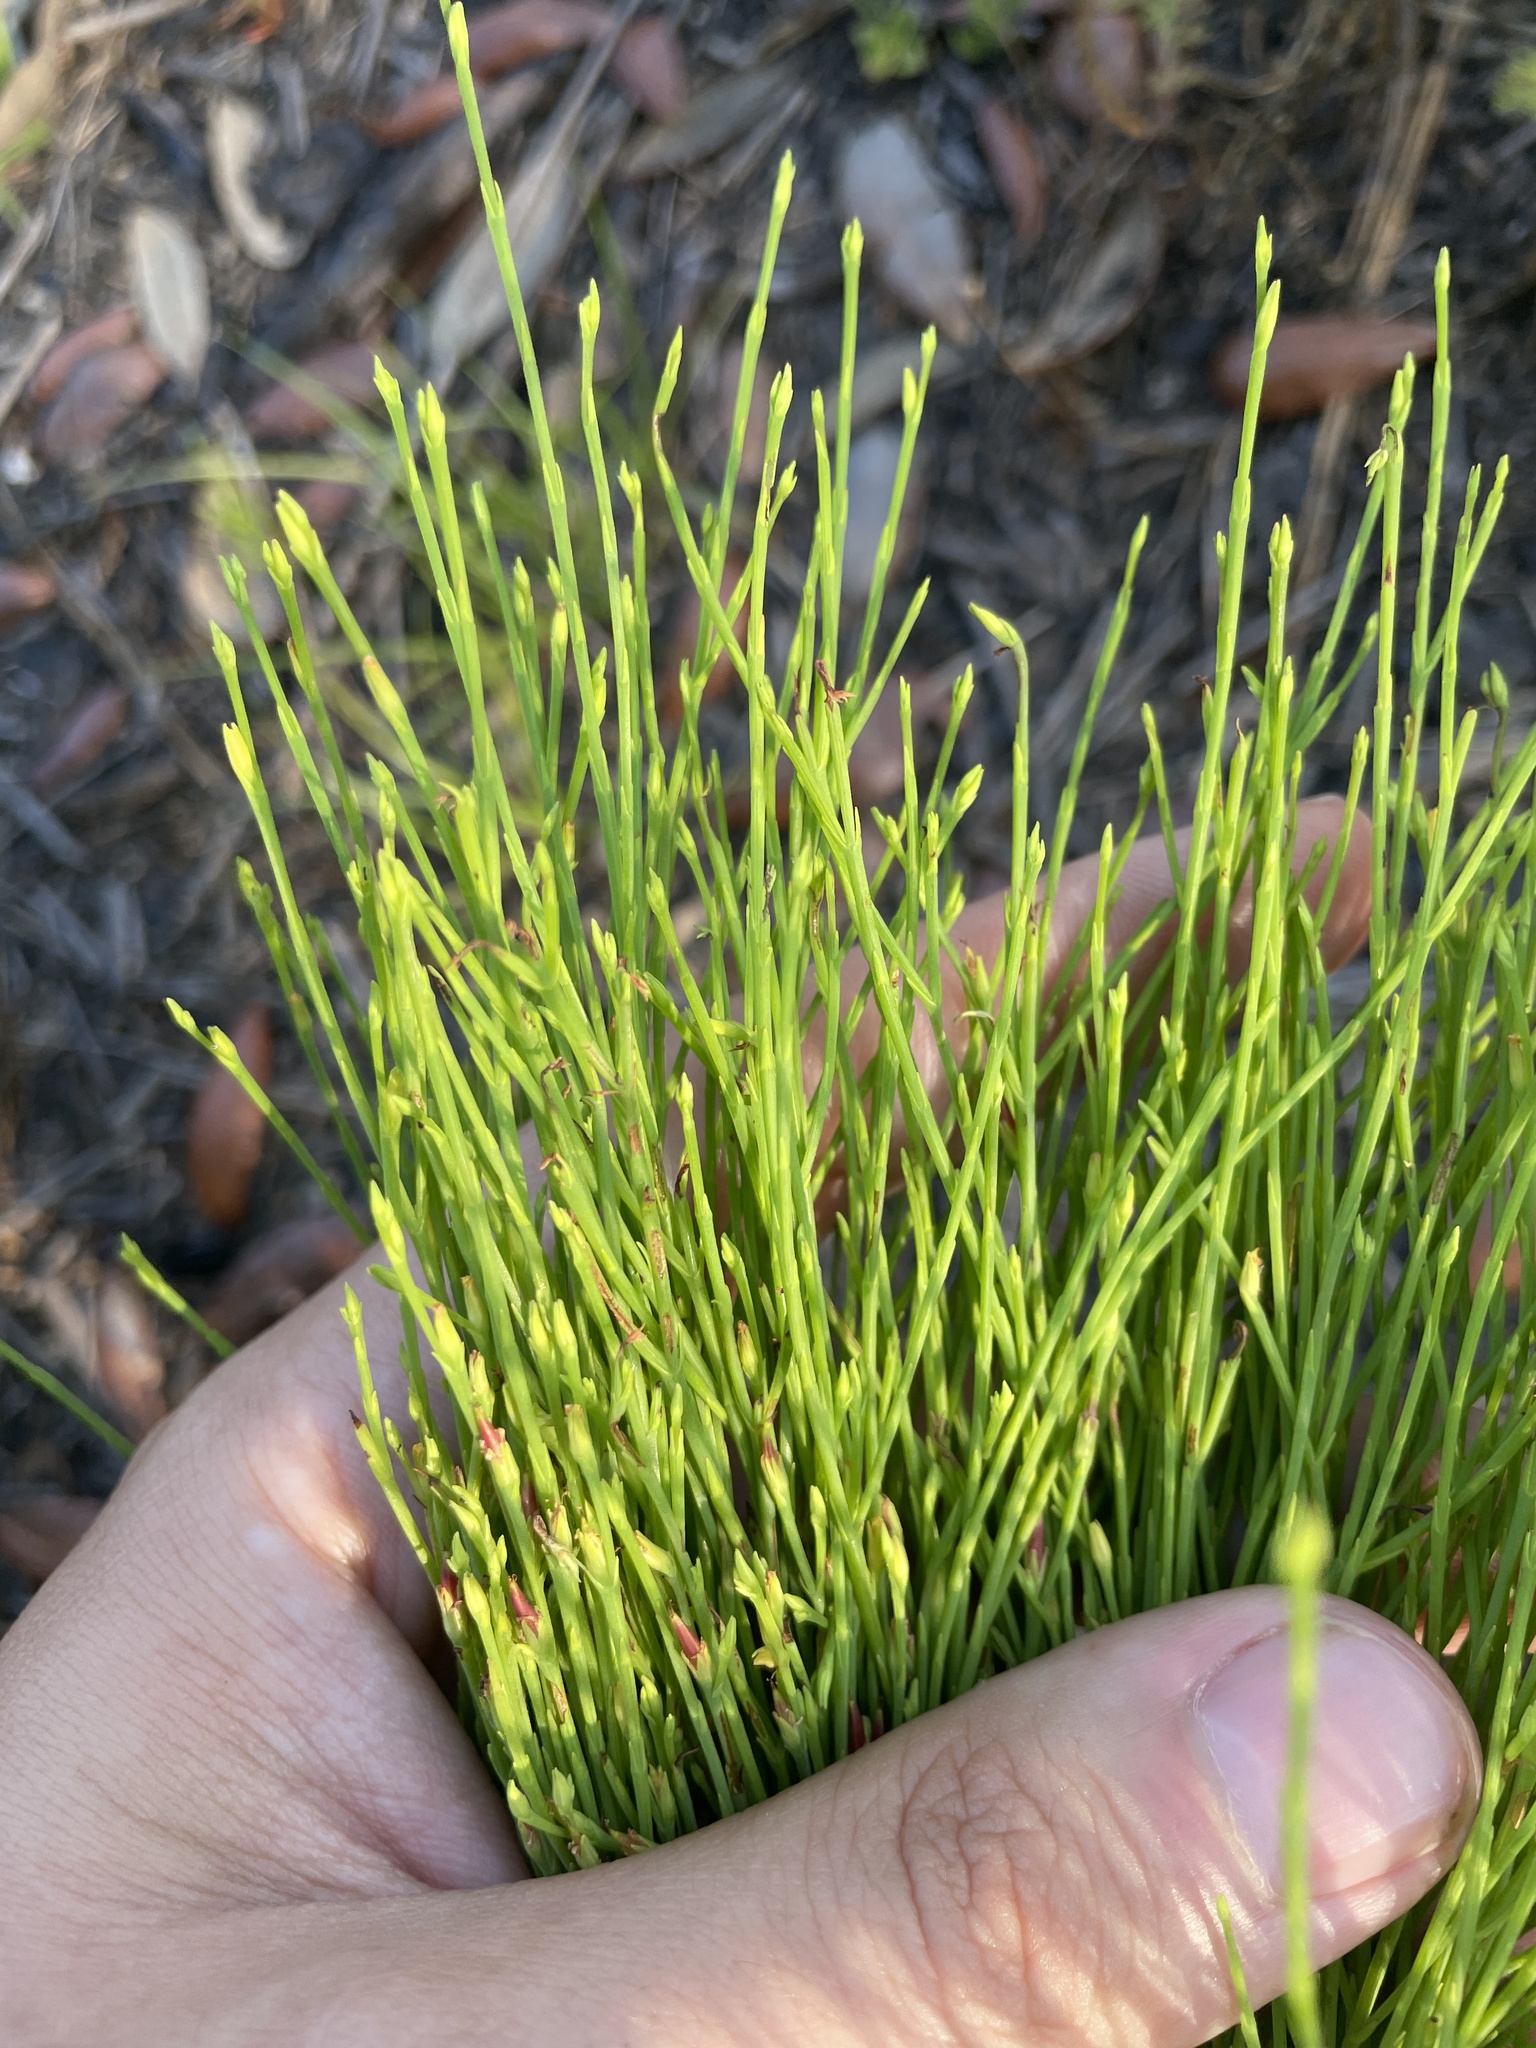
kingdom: Plantae
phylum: Tracheophyta
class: Magnoliopsida
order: Malpighiales
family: Hypericaceae
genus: Hypericum
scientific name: Hypericum gentianoides
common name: Gentian-leaved st. john's-wort
